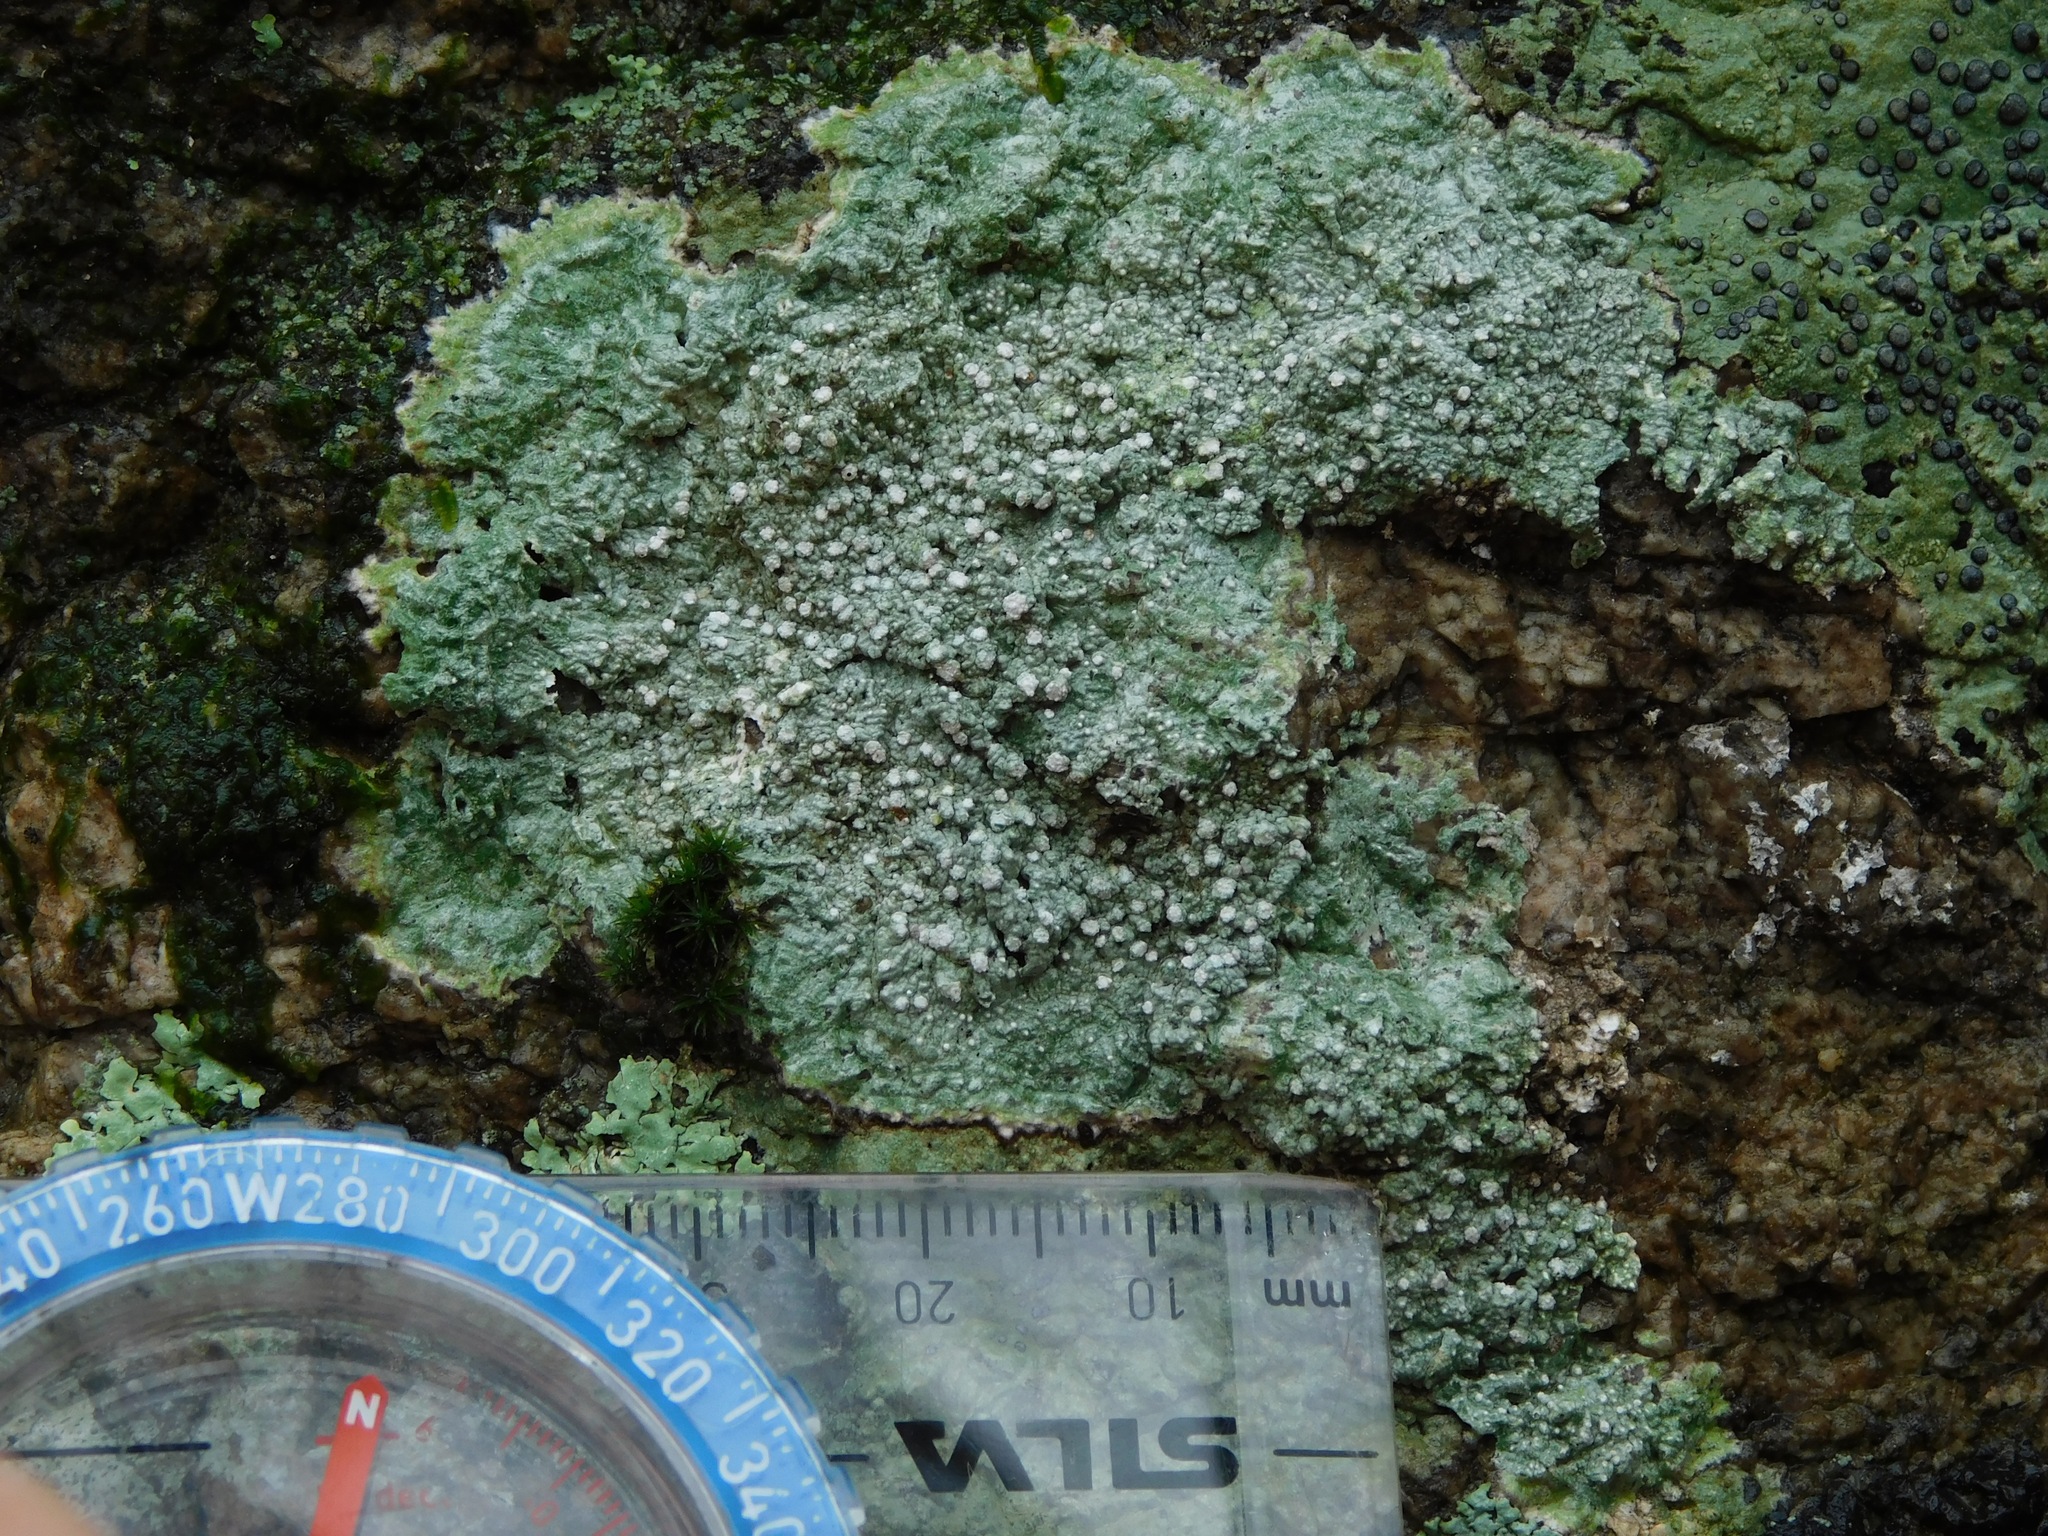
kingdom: Fungi
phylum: Ascomycota
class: Lecanoromycetes
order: Pertusariales
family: Pertusariaceae
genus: Lepra
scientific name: Lepra excludens
